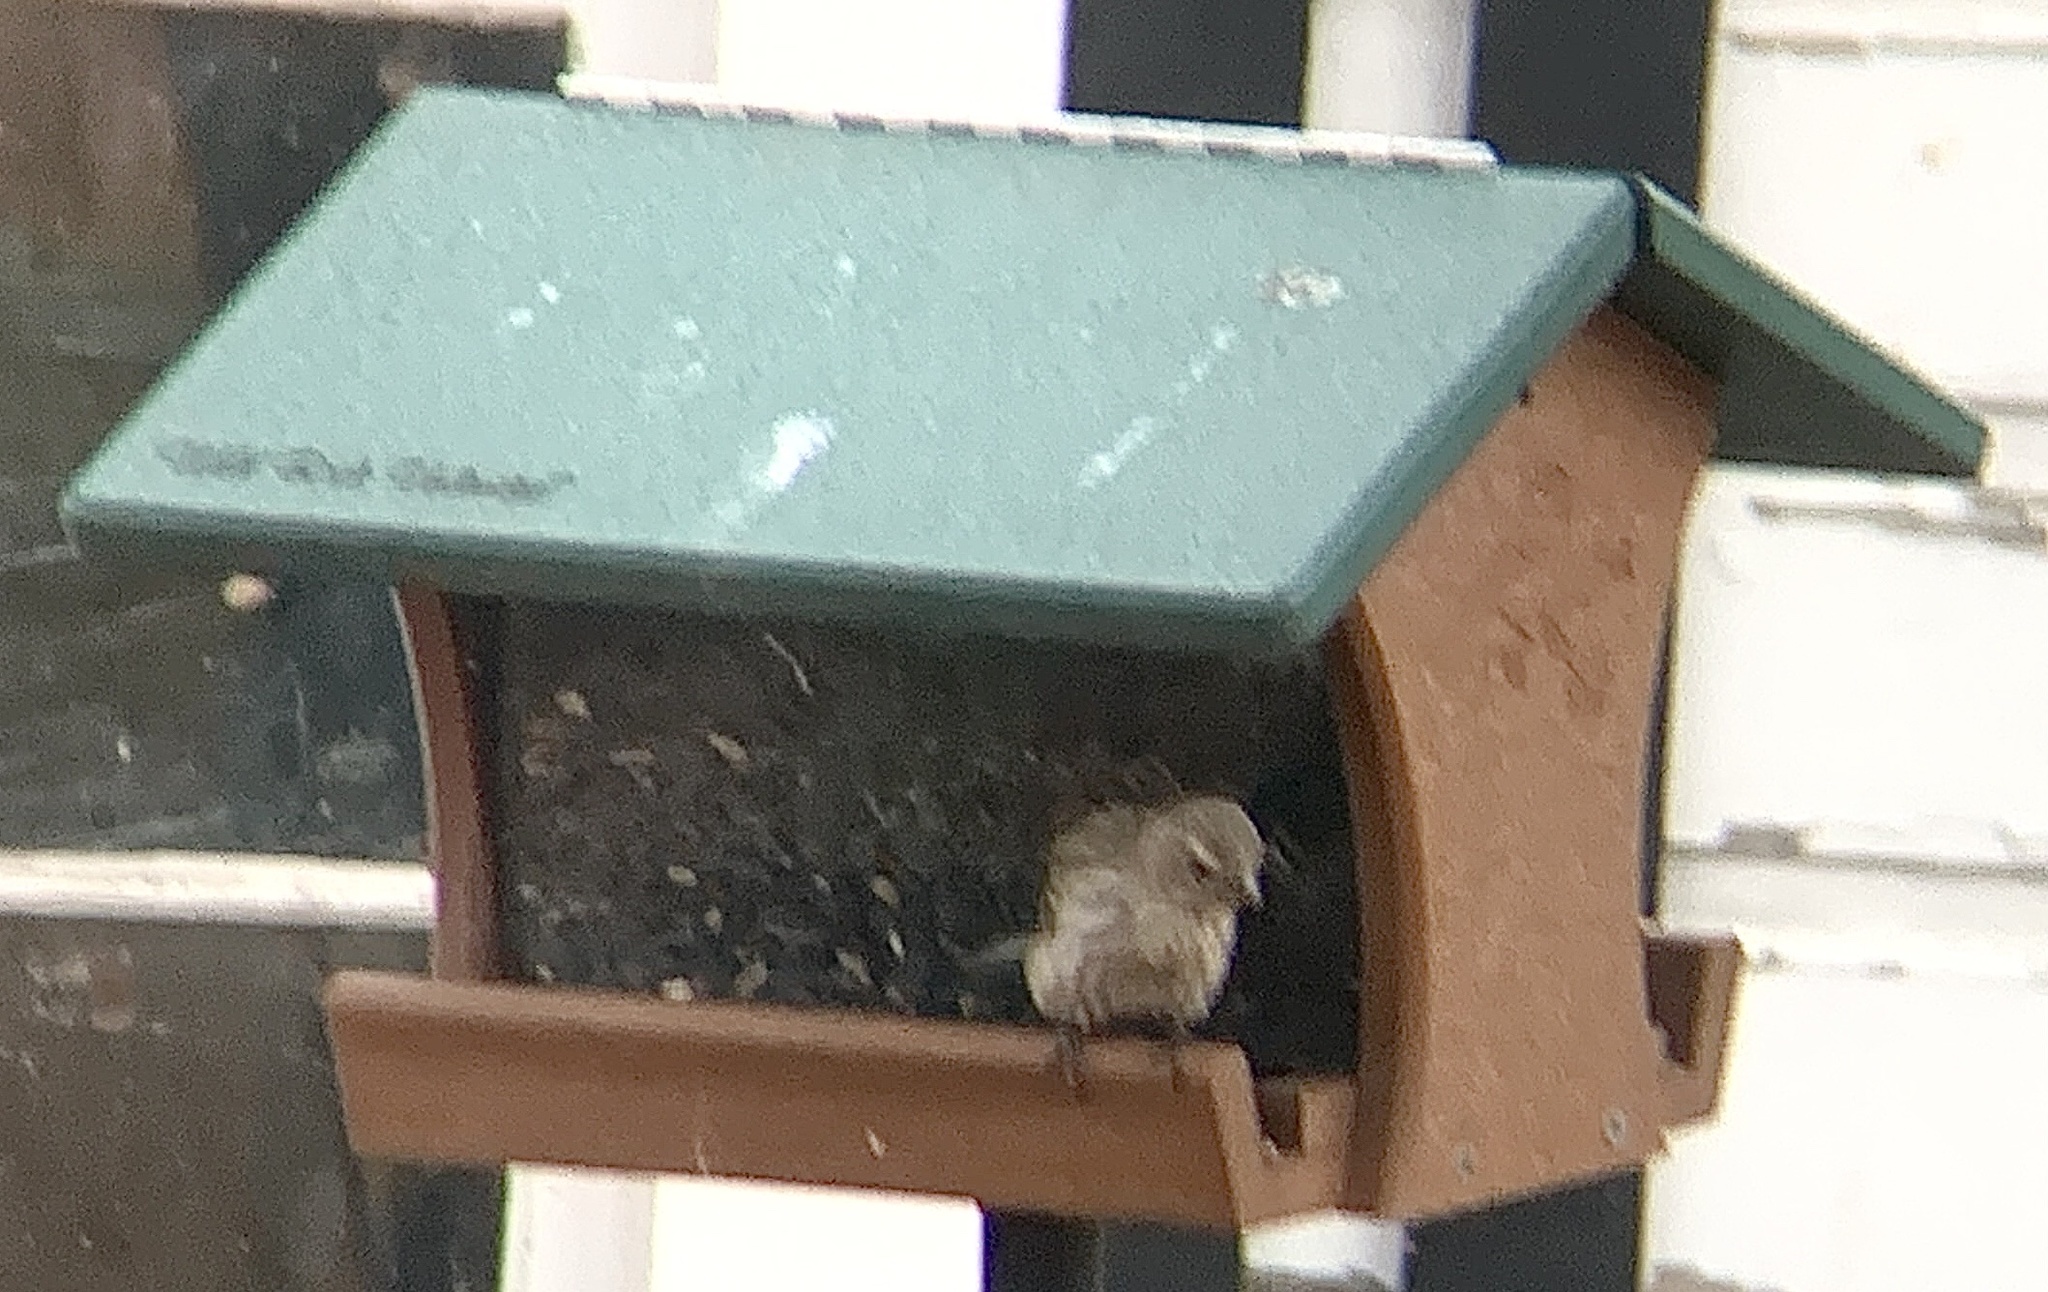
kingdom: Animalia
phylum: Chordata
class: Aves
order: Passeriformes
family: Fringillidae
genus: Haemorhous
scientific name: Haemorhous purpureus
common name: Purple finch
